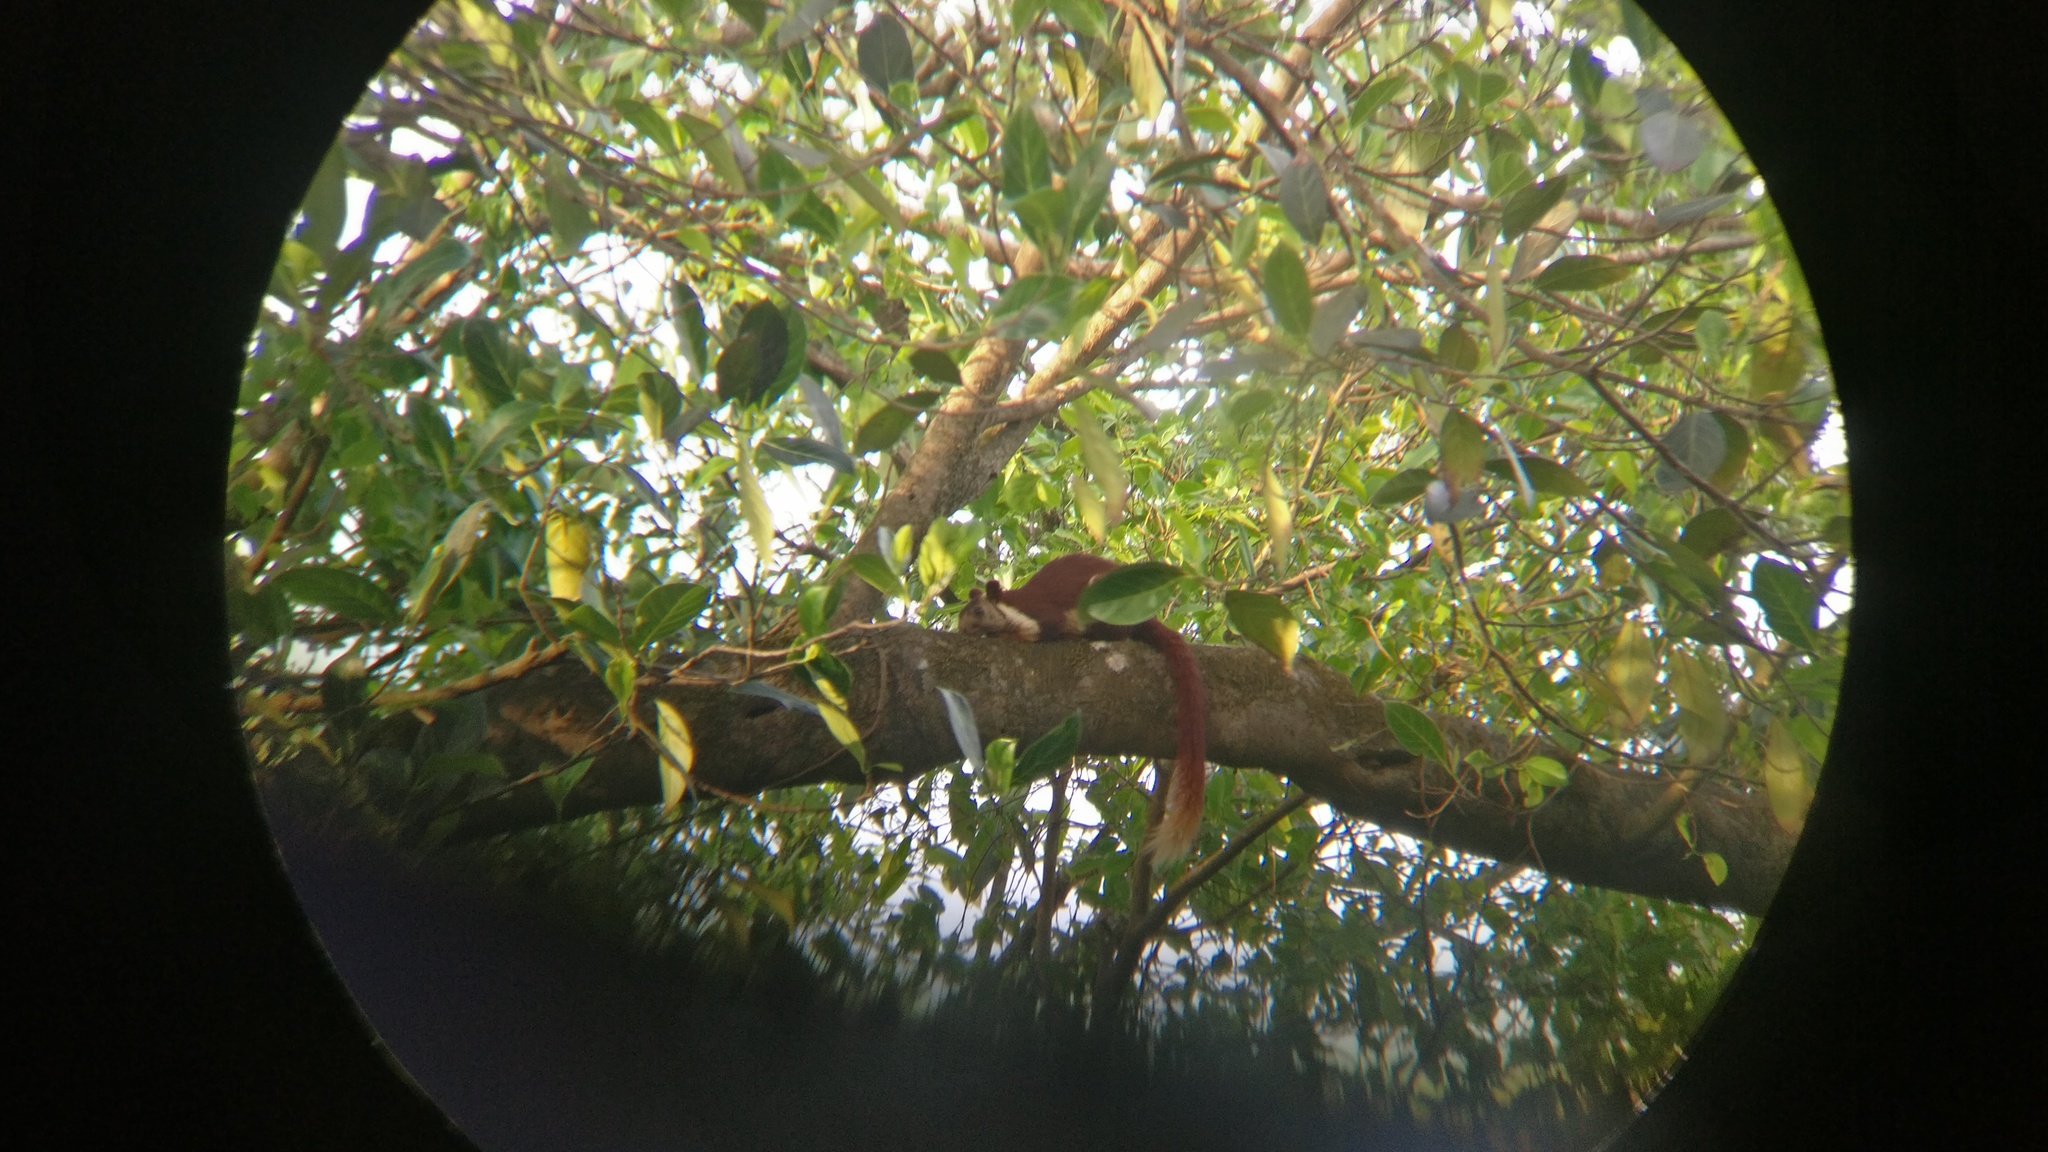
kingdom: Animalia
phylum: Chordata
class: Mammalia
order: Rodentia
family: Sciuridae
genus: Ratufa
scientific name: Ratufa indica
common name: Indian giant squirrel
